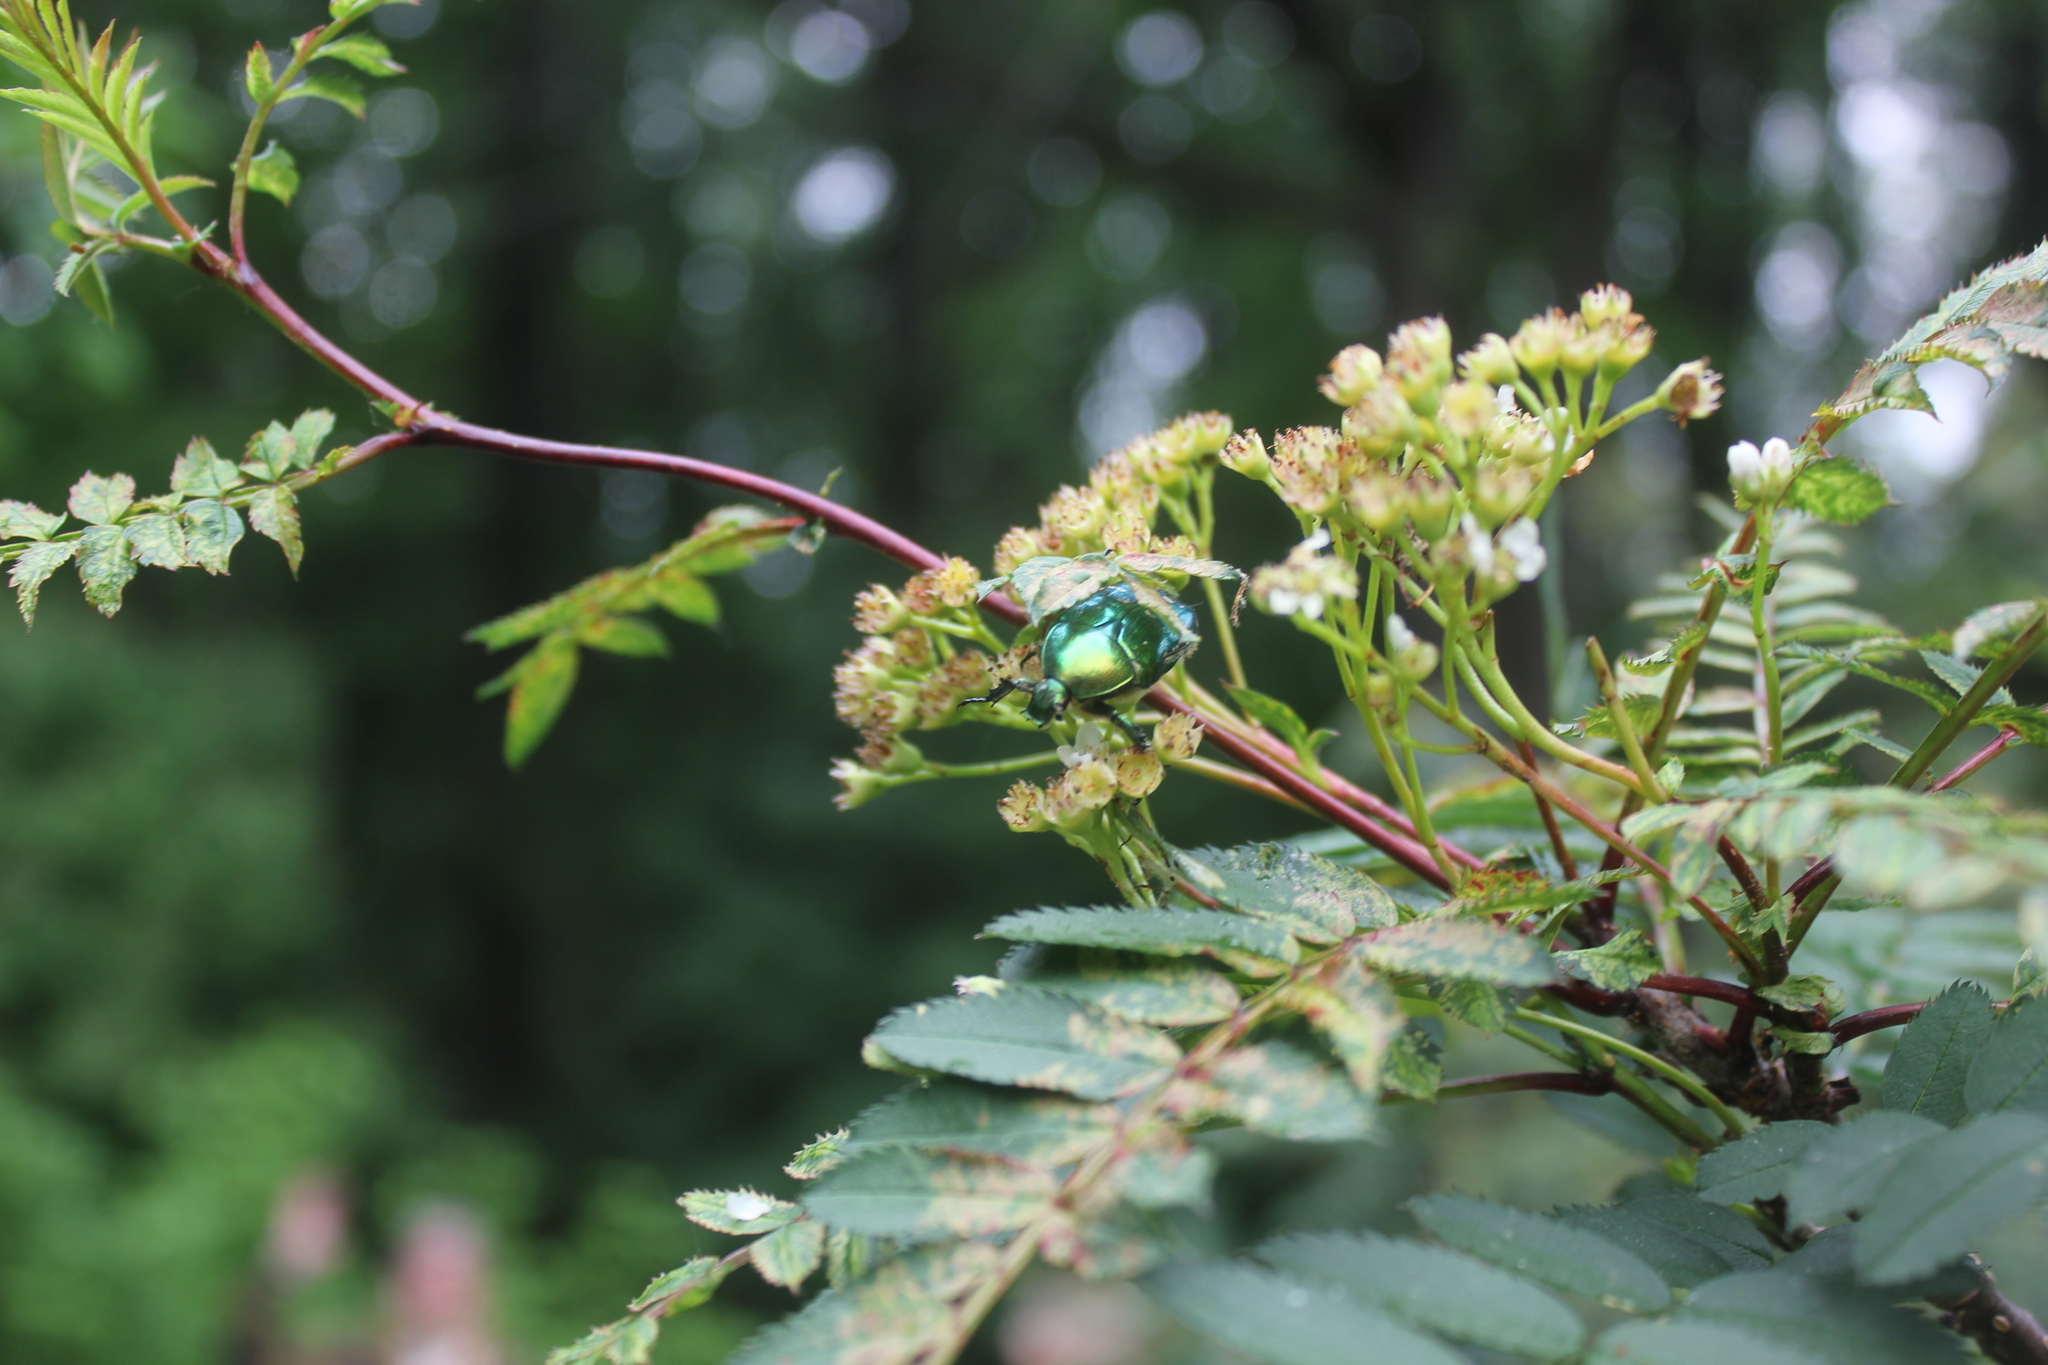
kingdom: Animalia
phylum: Arthropoda
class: Insecta
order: Coleoptera
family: Scarabaeidae
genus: Cetonia
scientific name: Cetonia aurata
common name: Rose chafer
